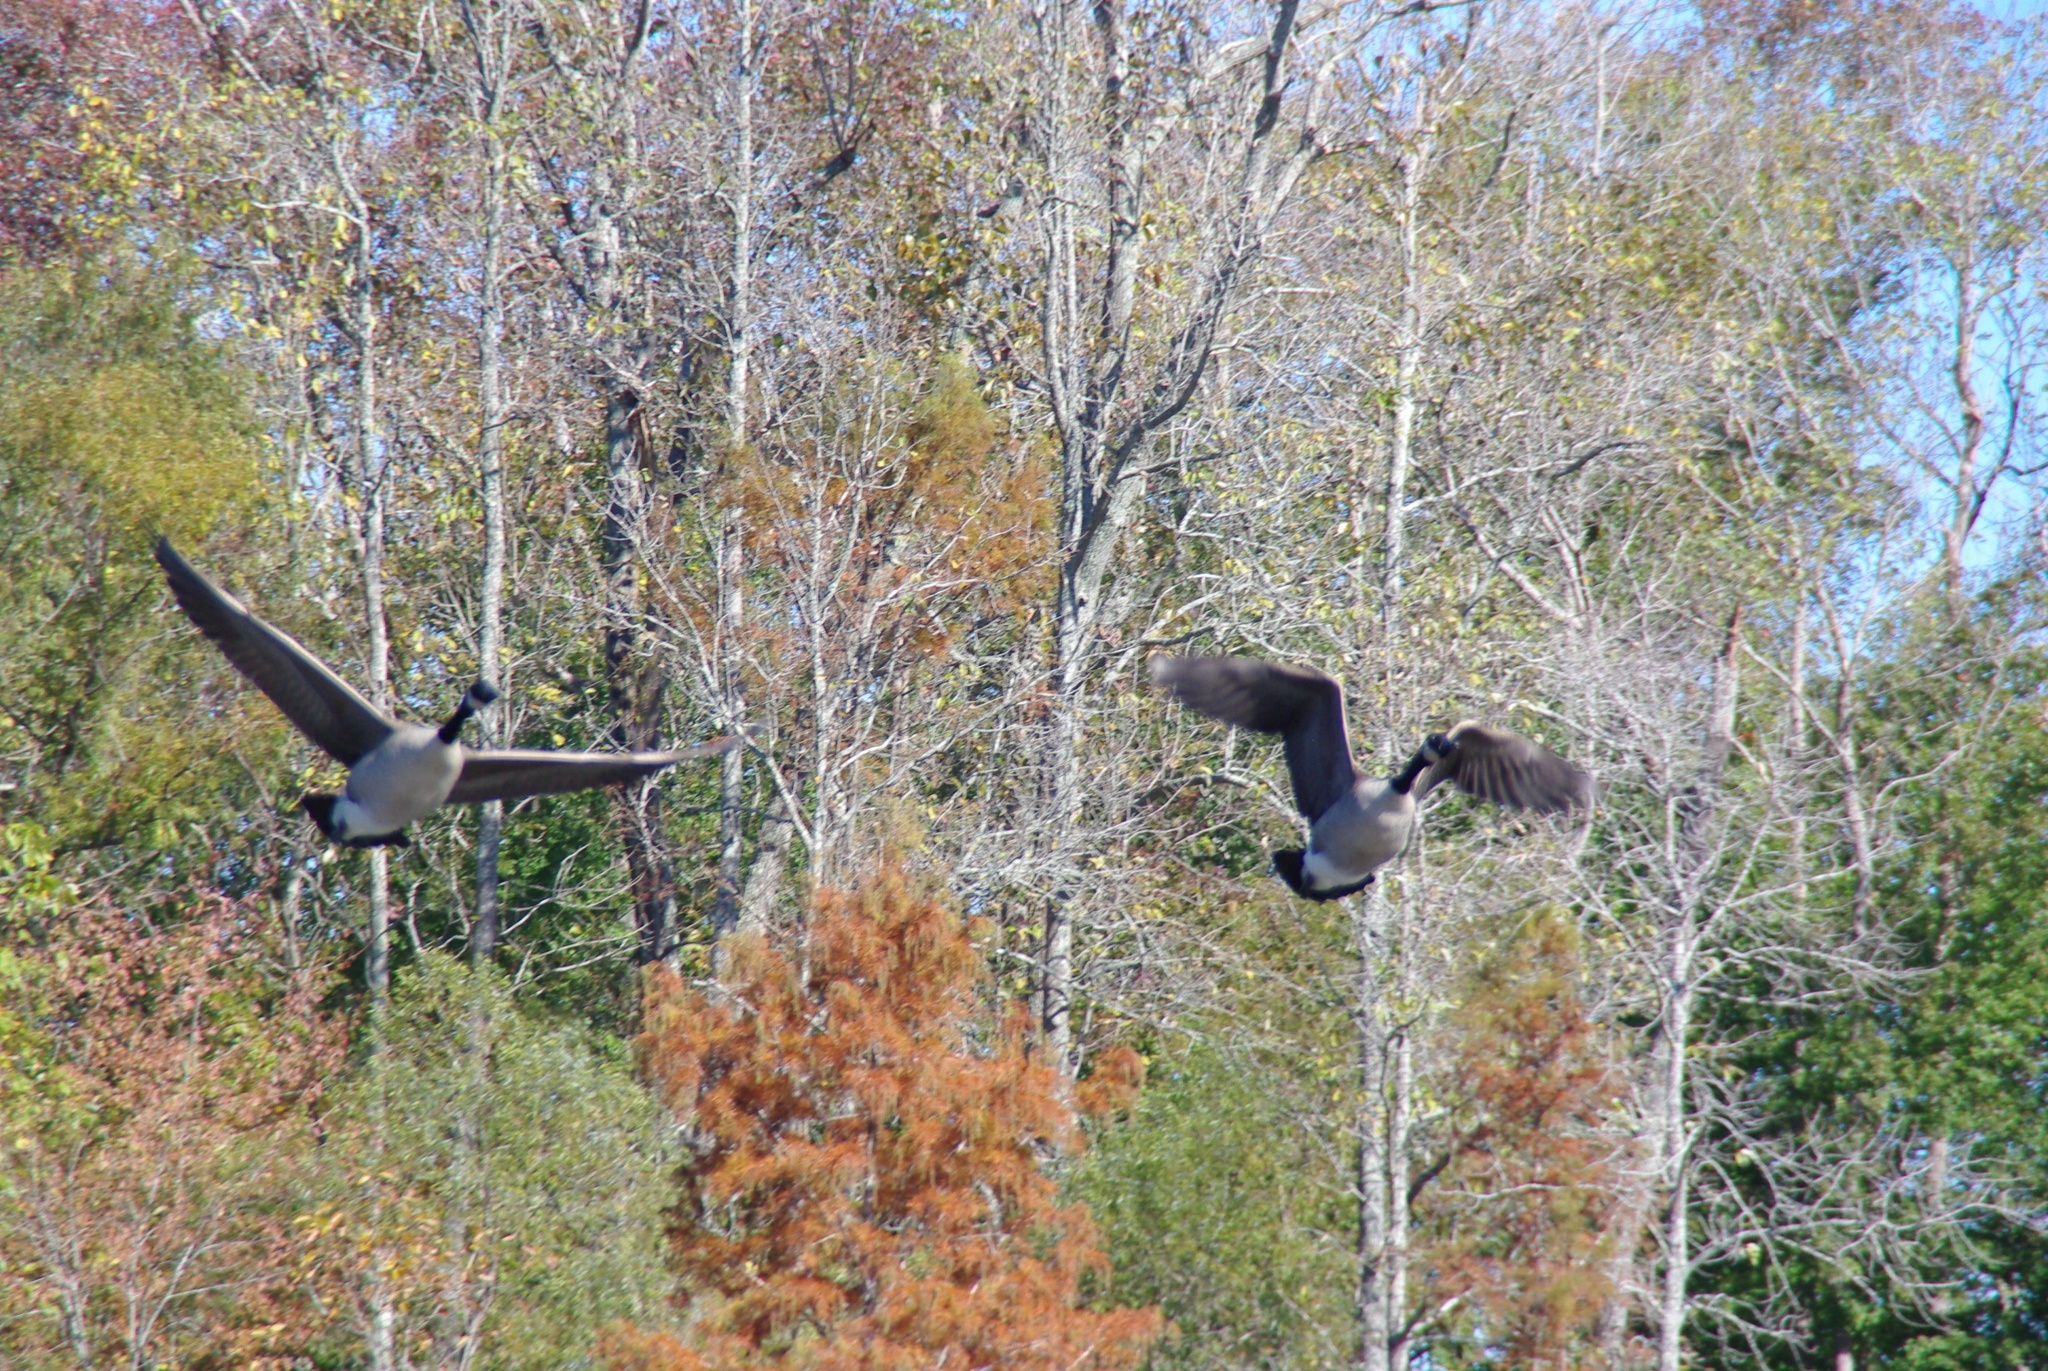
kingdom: Animalia
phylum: Chordata
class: Aves
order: Anseriformes
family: Anatidae
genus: Branta
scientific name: Branta canadensis
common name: Canada goose
